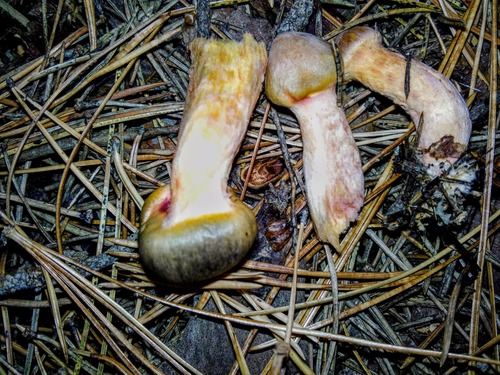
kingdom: Fungi
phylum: Basidiomycota
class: Agaricomycetes
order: Boletales
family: Gomphidiaceae
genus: Chroogomphus
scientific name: Chroogomphus rutilus
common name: Copper spike
